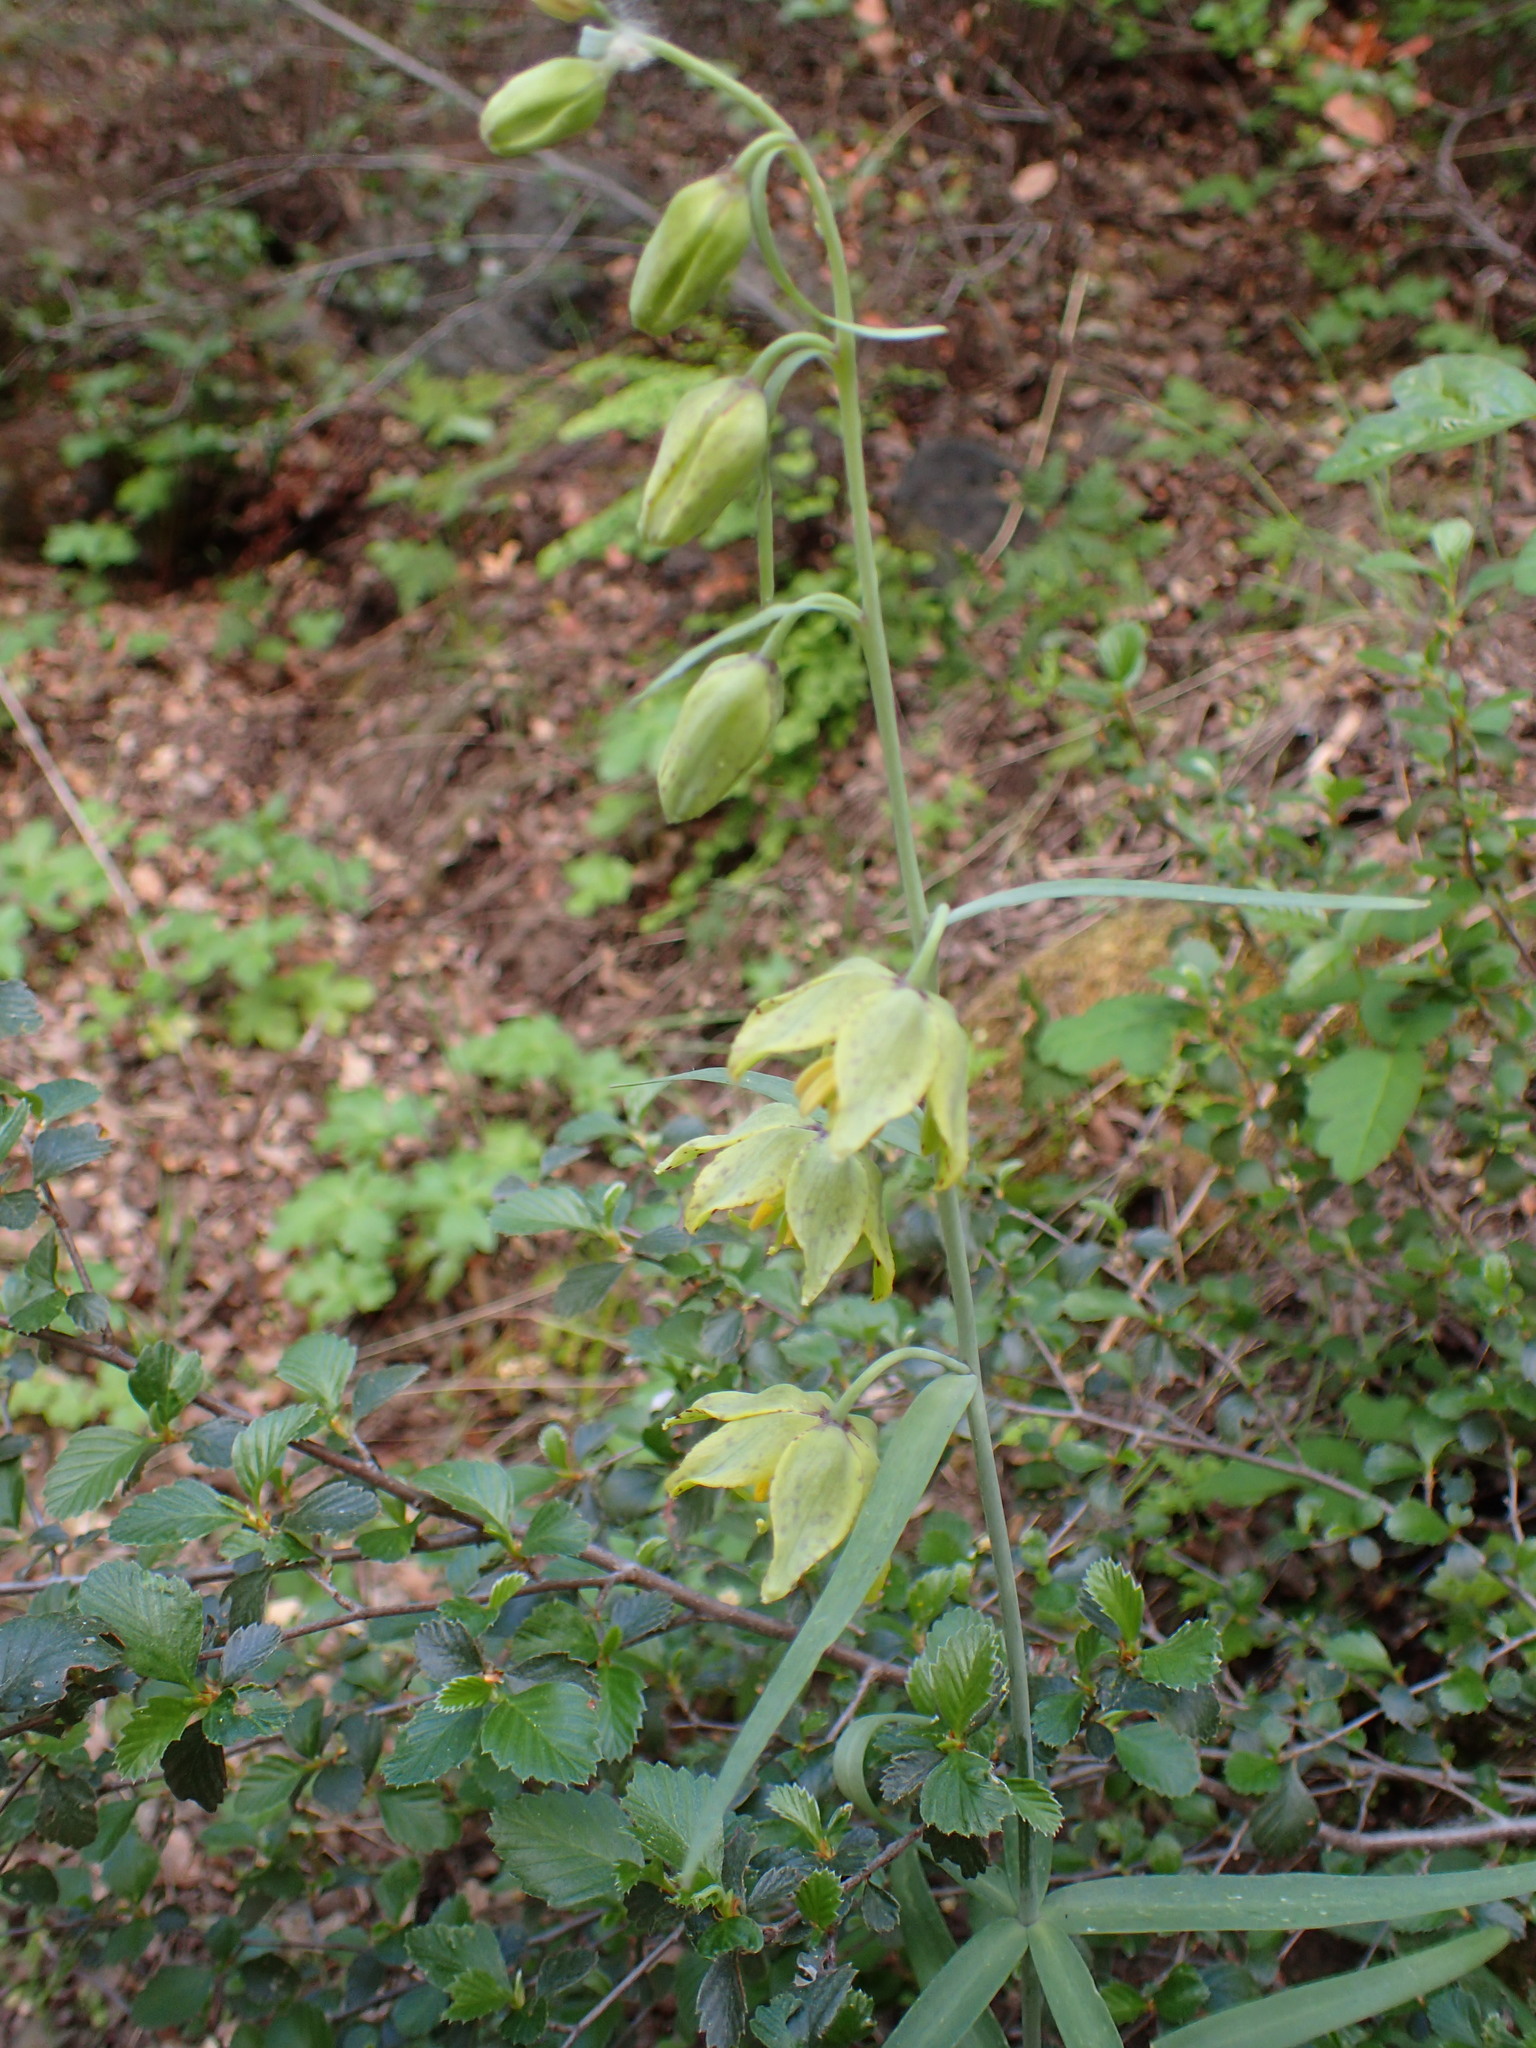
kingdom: Plantae
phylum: Tracheophyta
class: Liliopsida
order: Liliales
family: Liliaceae
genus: Fritillaria
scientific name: Fritillaria ojaiensis
